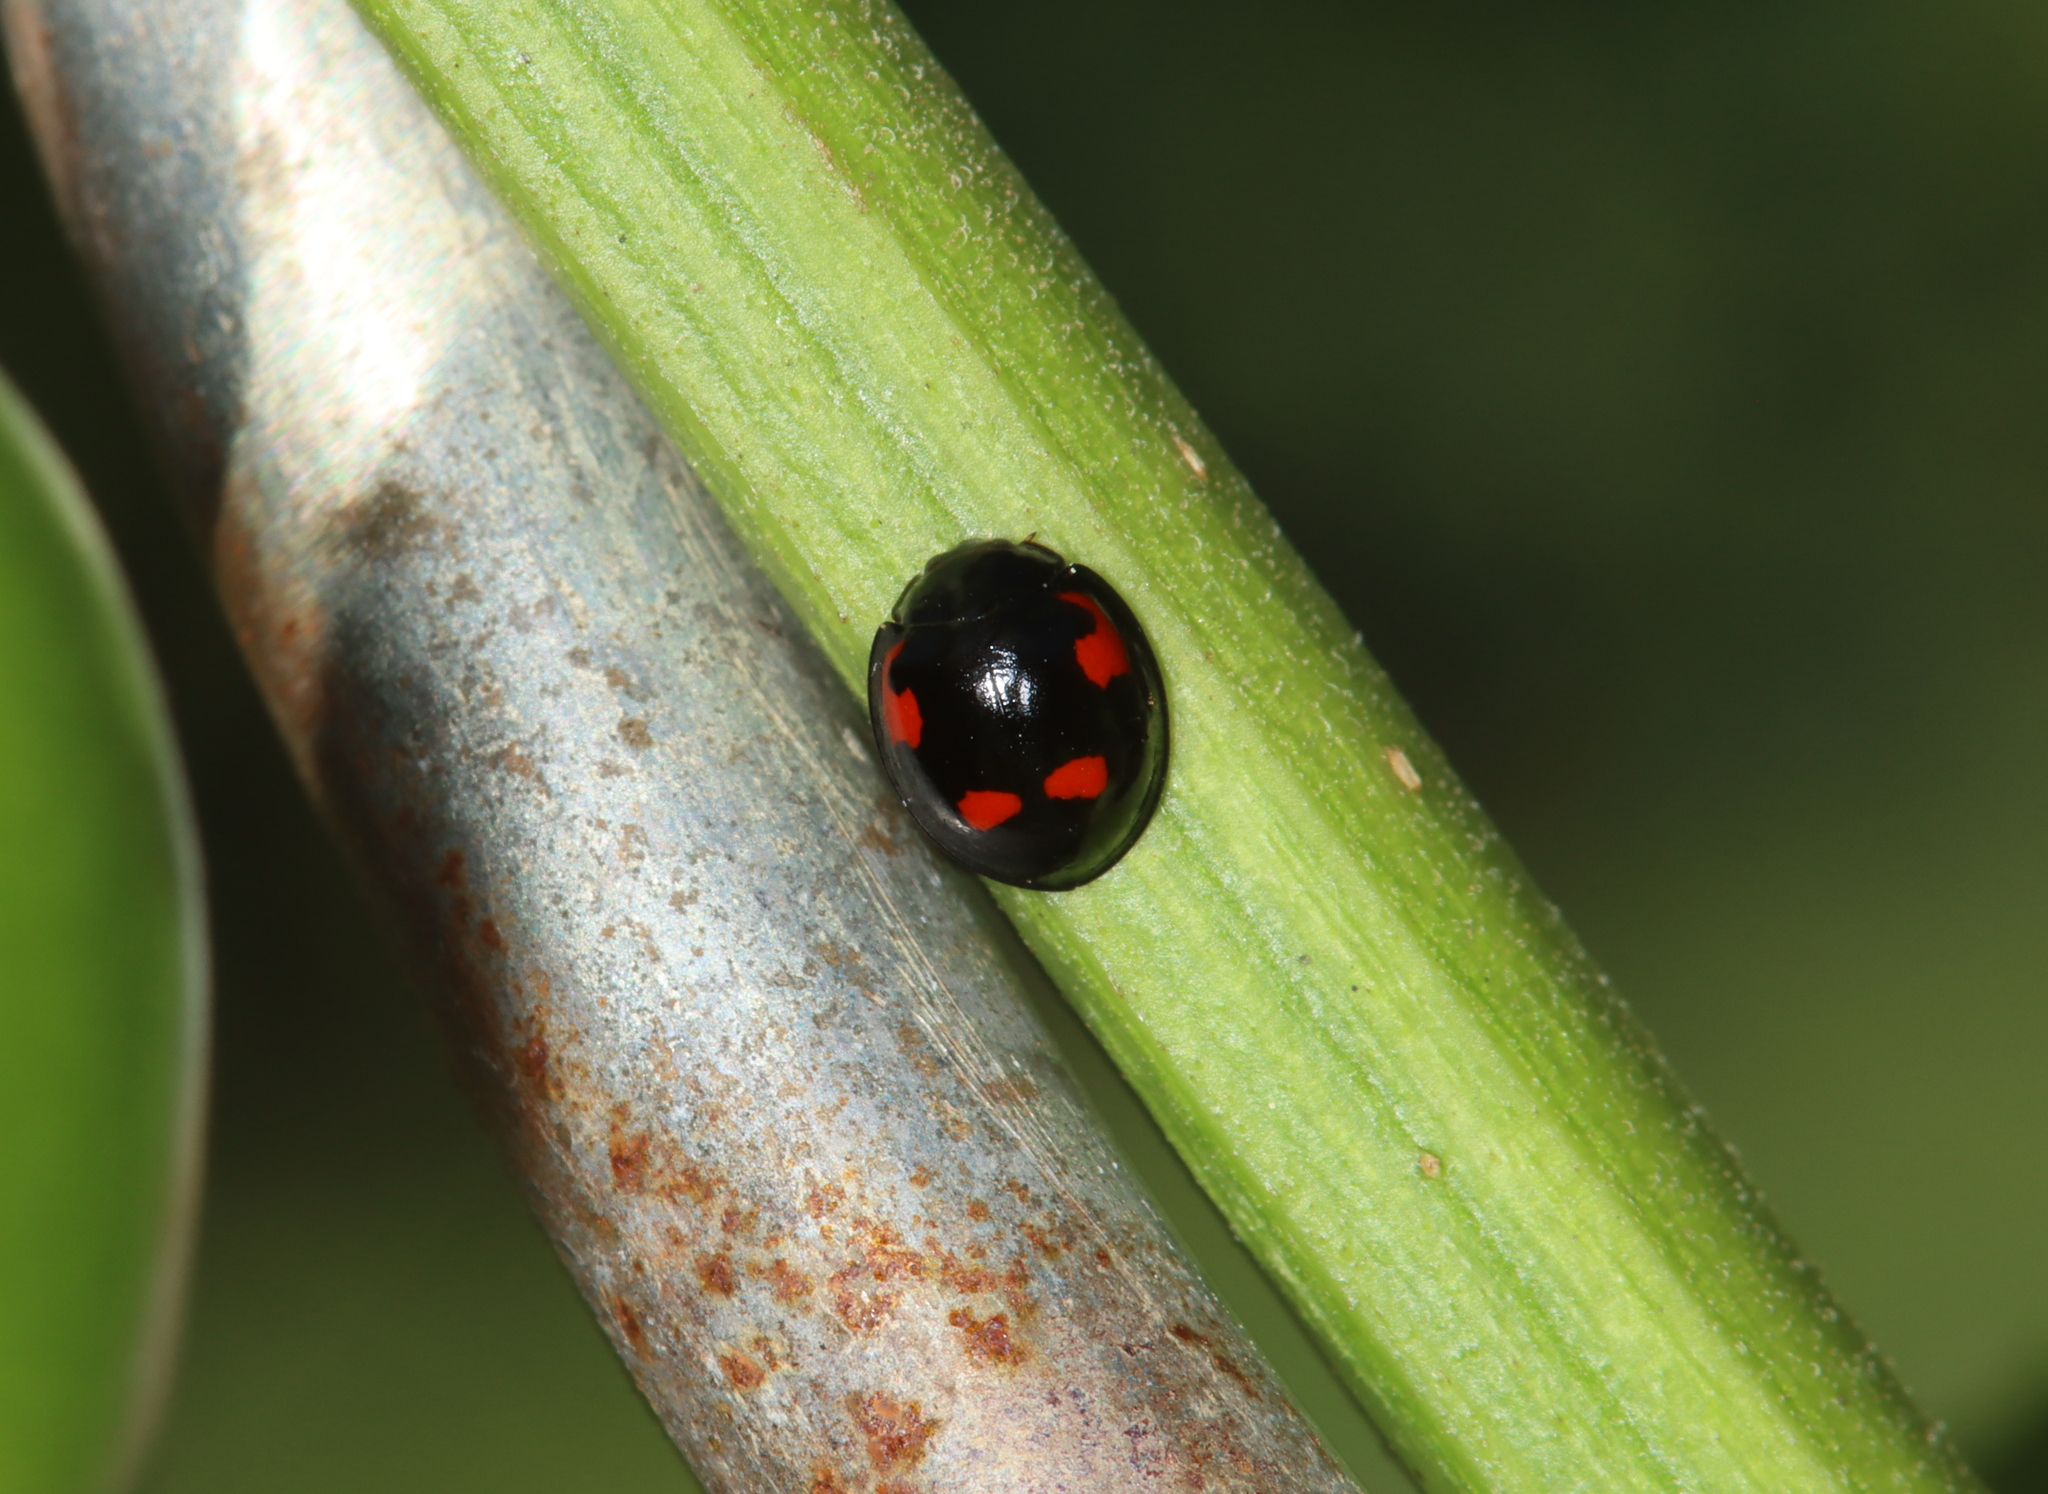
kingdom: Animalia
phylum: Arthropoda
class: Insecta
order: Coleoptera
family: Coccinellidae
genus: Brumus
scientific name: Brumus quadripustulatus
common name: Ladybird beetle
